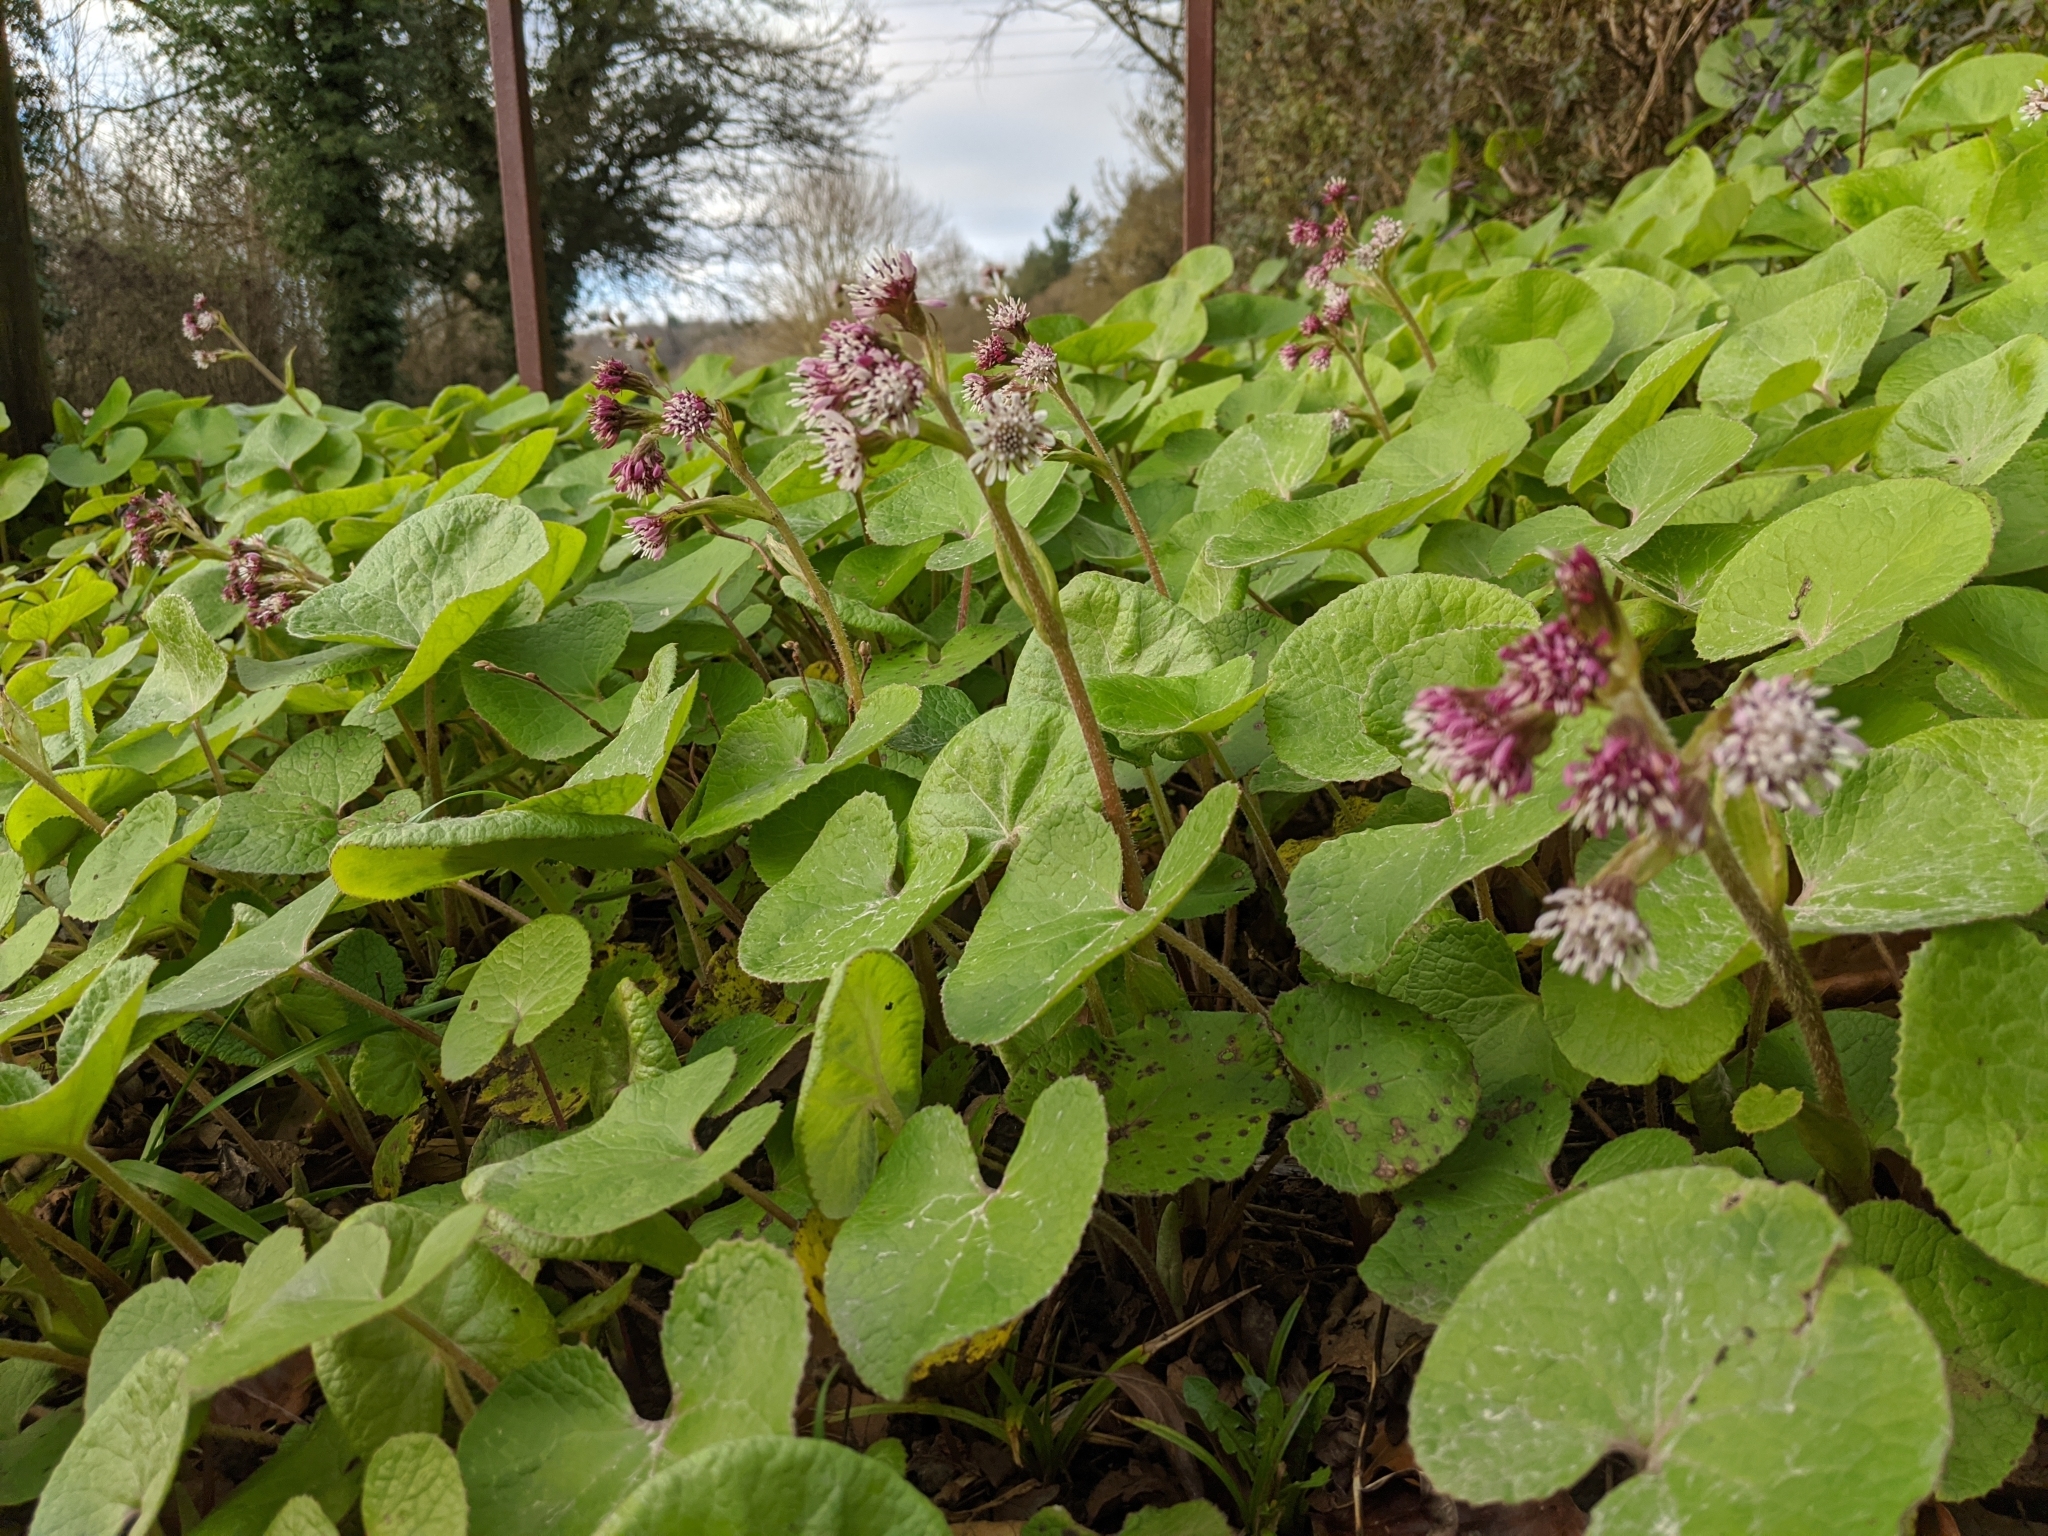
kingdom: Plantae
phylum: Tracheophyta
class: Magnoliopsida
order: Asterales
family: Asteraceae
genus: Petasites
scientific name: Petasites pyrenaicus
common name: Winter heliotrope
